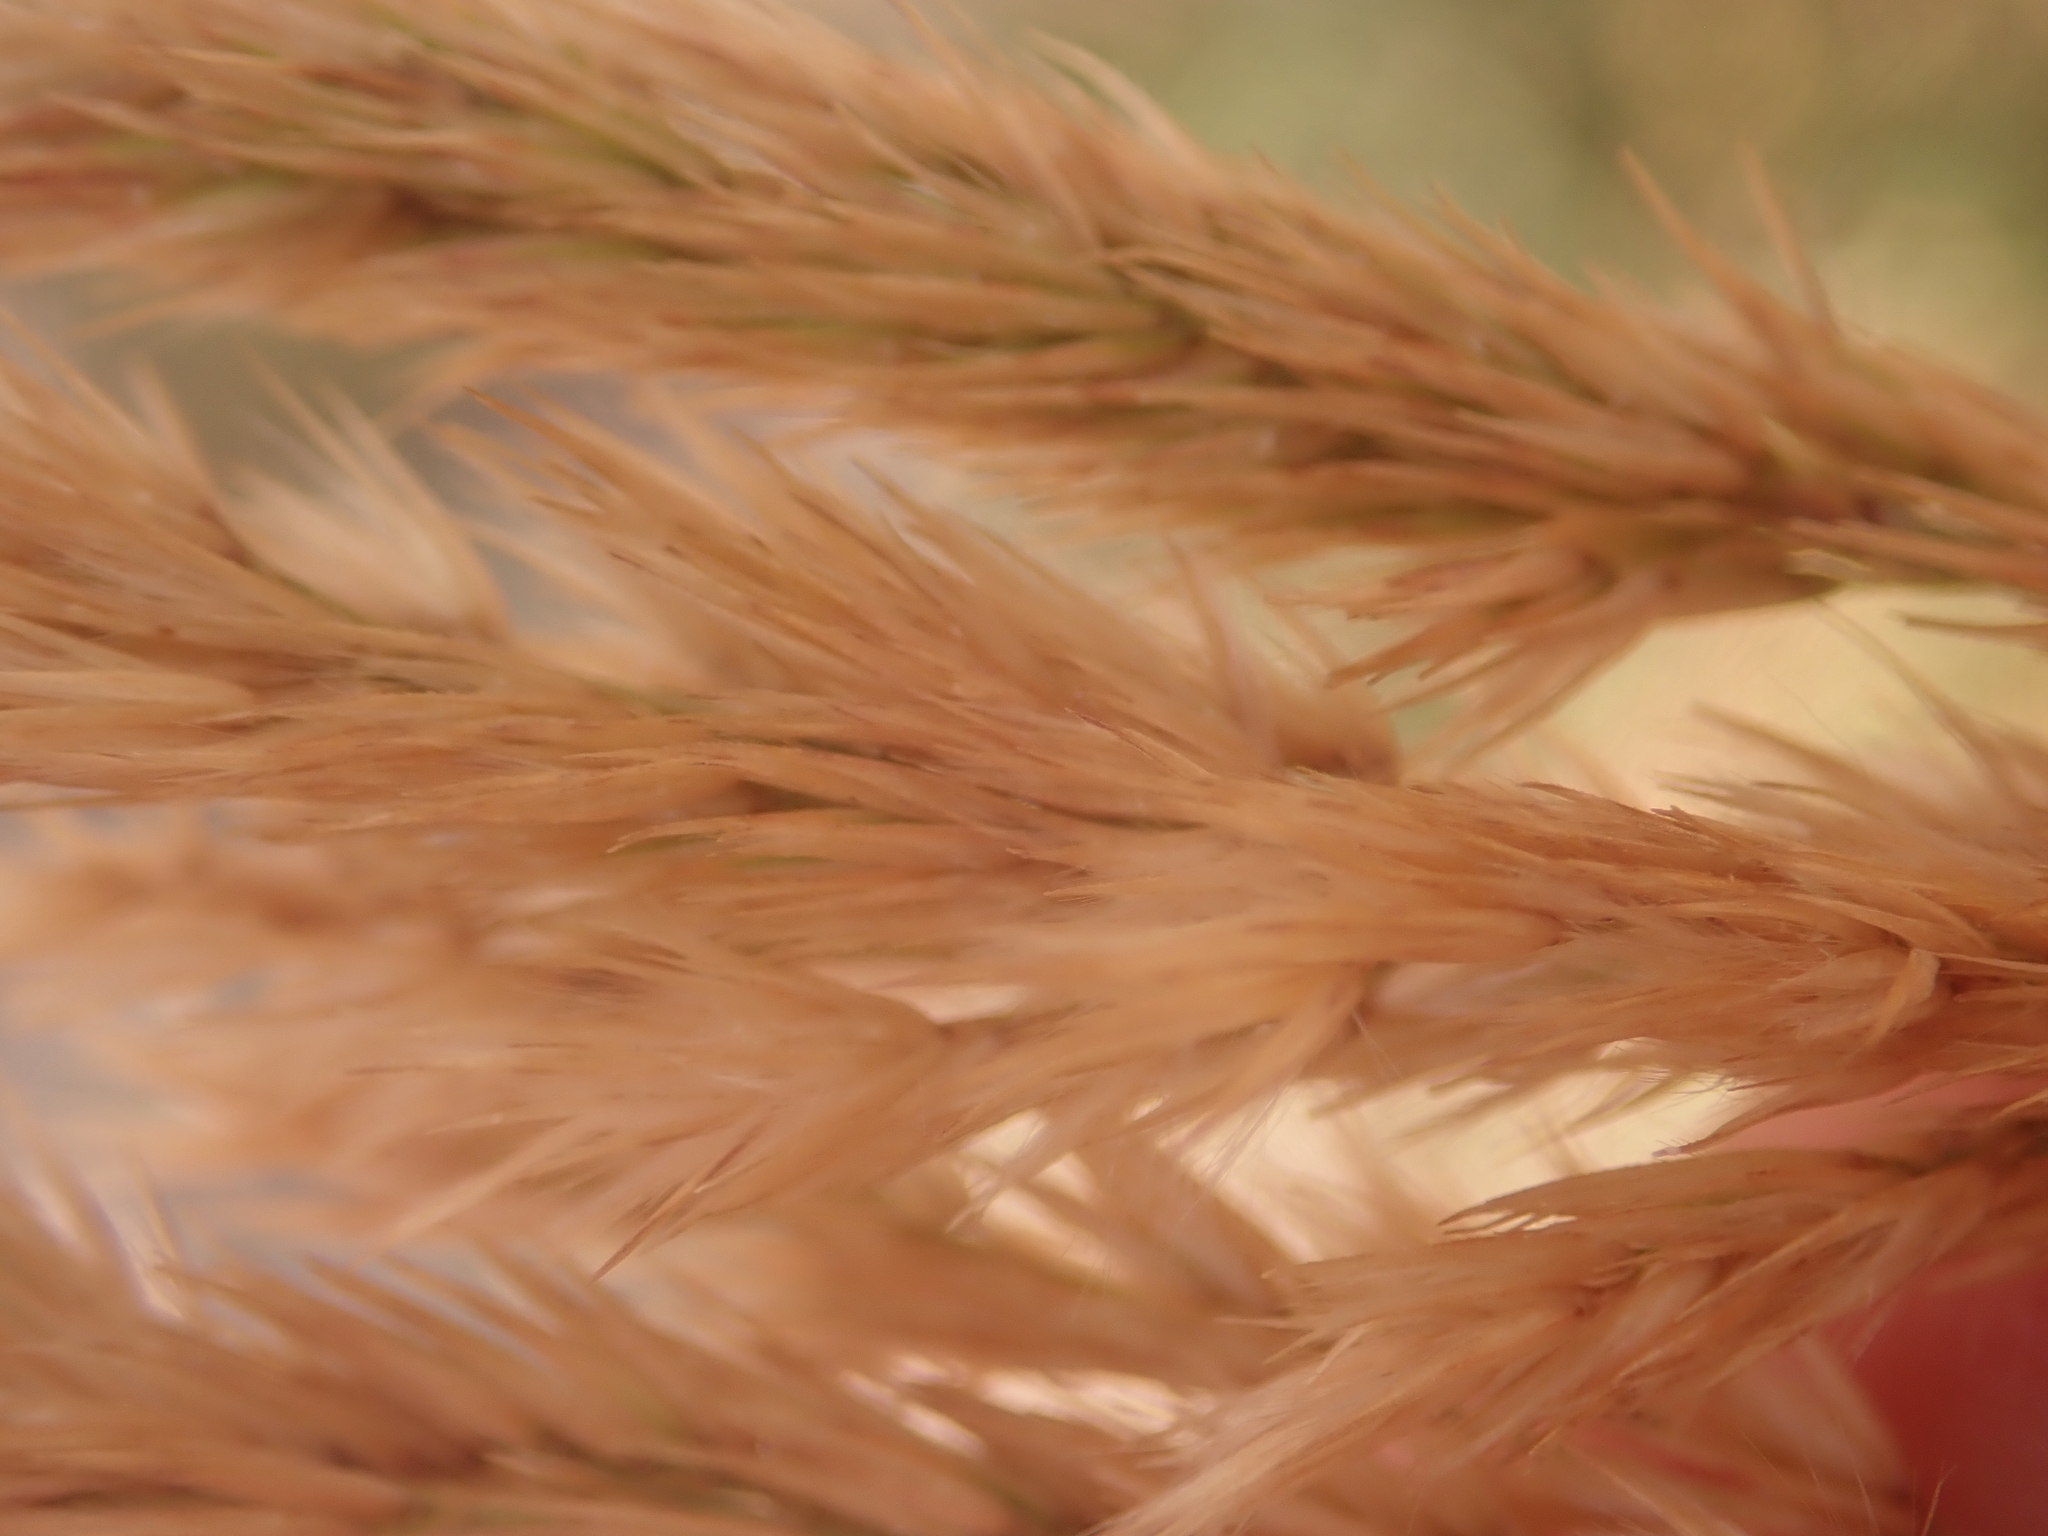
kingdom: Plantae
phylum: Tracheophyta
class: Liliopsida
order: Poales
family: Poaceae
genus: Calamagrostis
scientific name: Calamagrostis epigejos
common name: Wood small-reed
